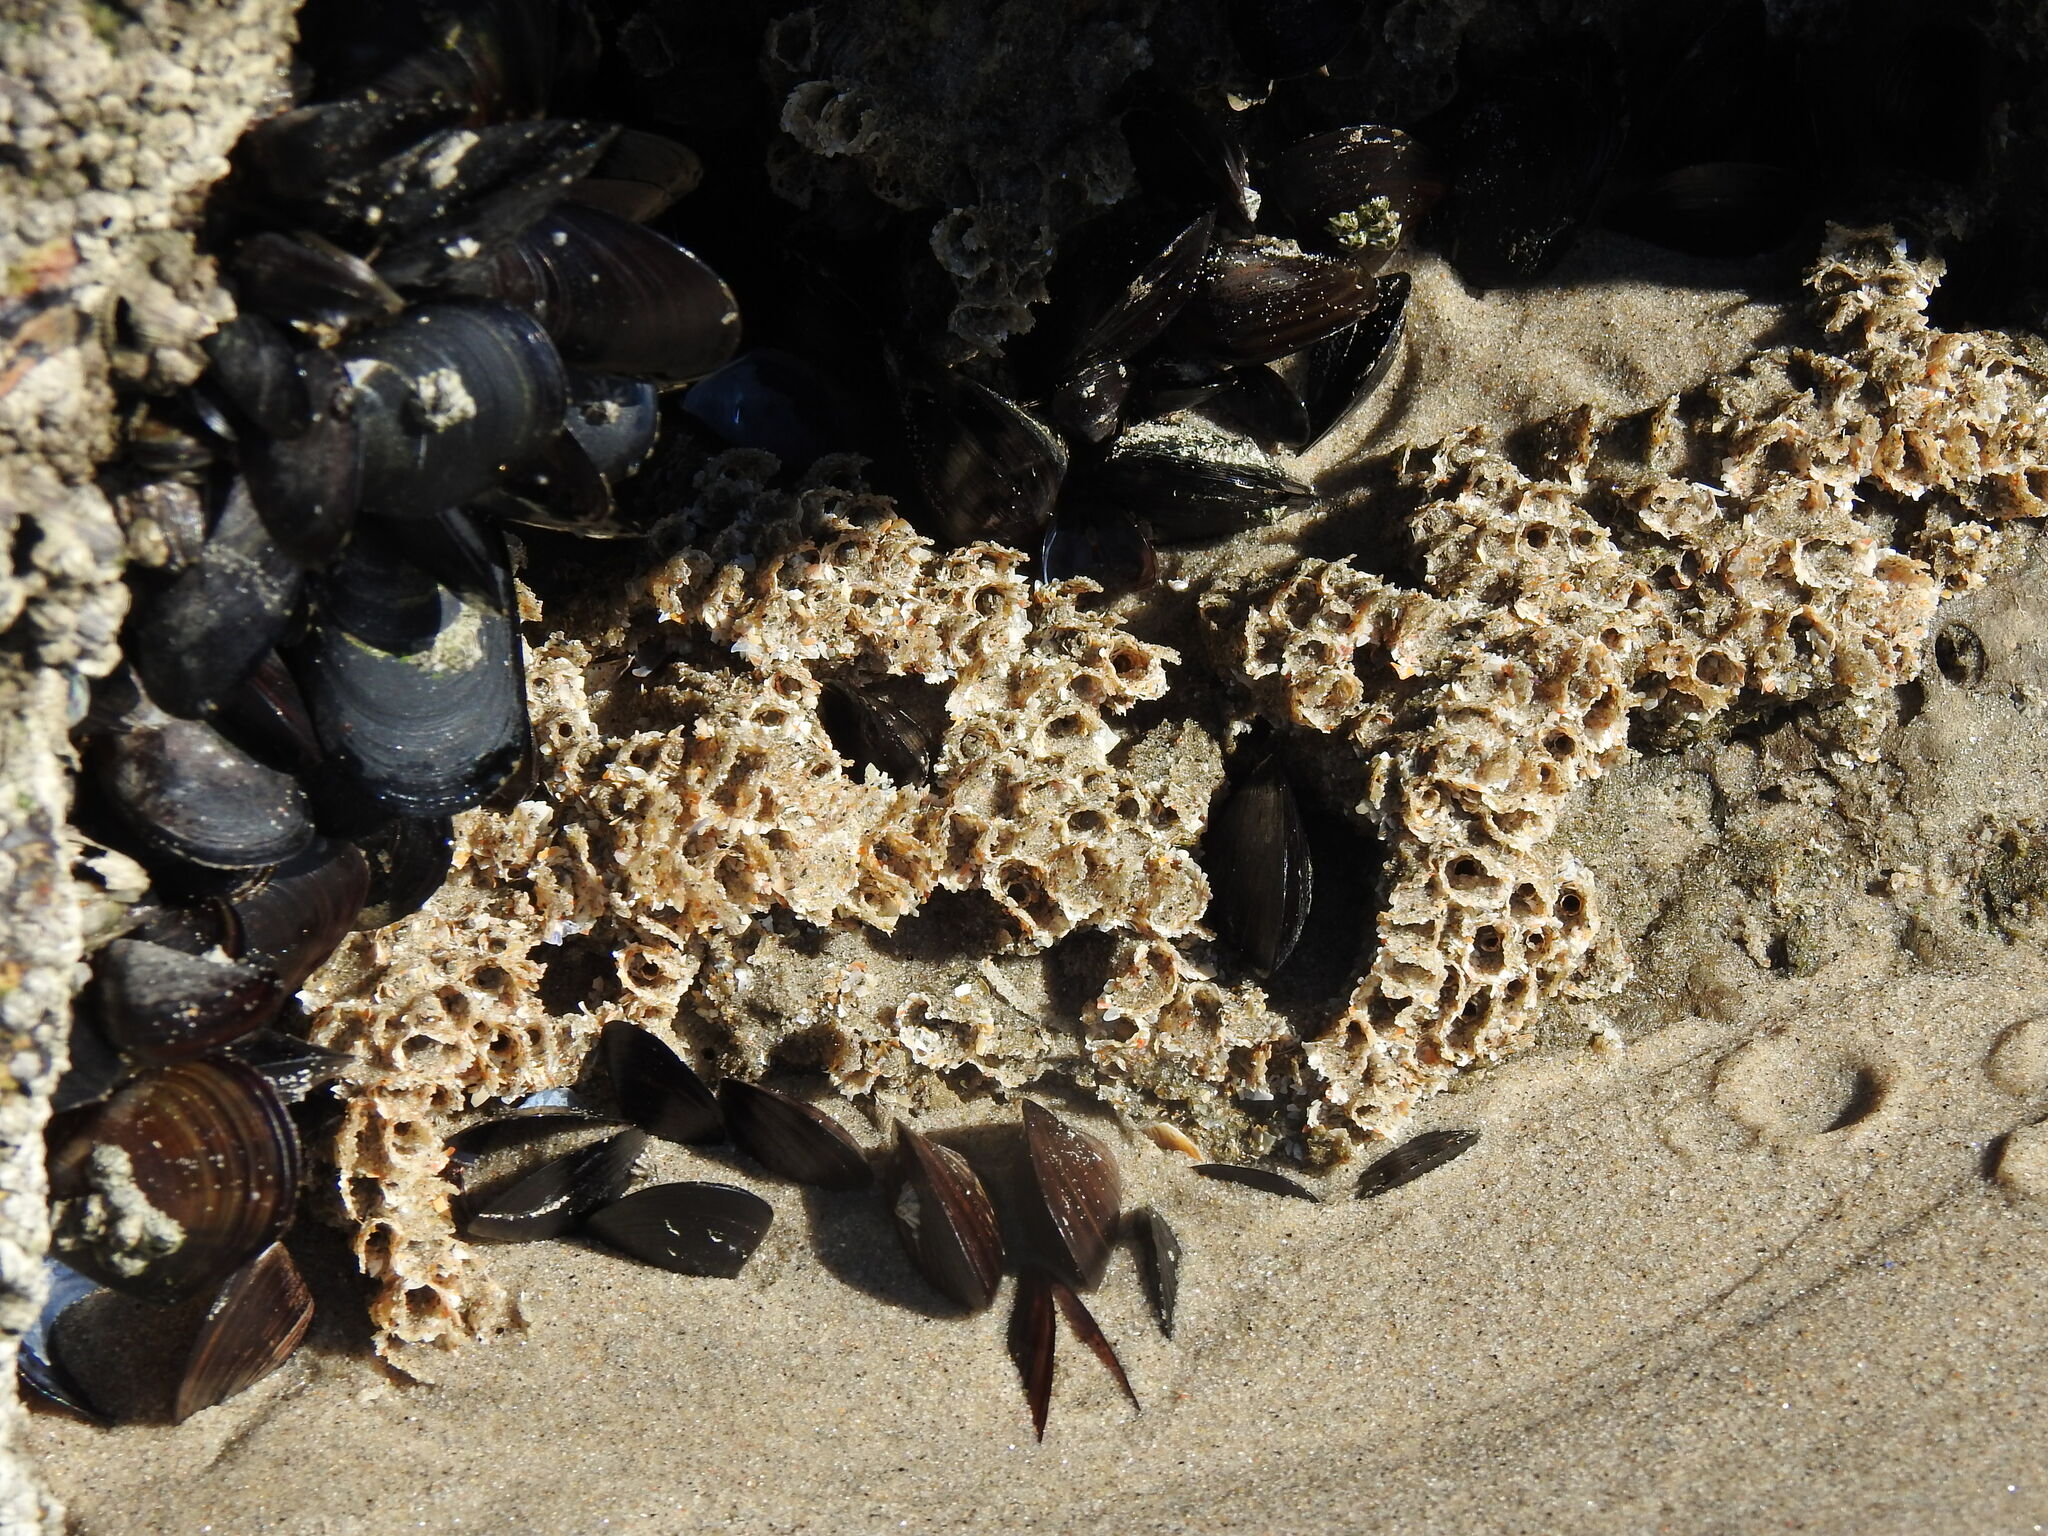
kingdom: Animalia
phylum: Annelida
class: Polychaeta
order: Sabellida
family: Sabellariidae
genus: Sabellaria
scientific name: Sabellaria alveolata
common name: Honeycomb worm
